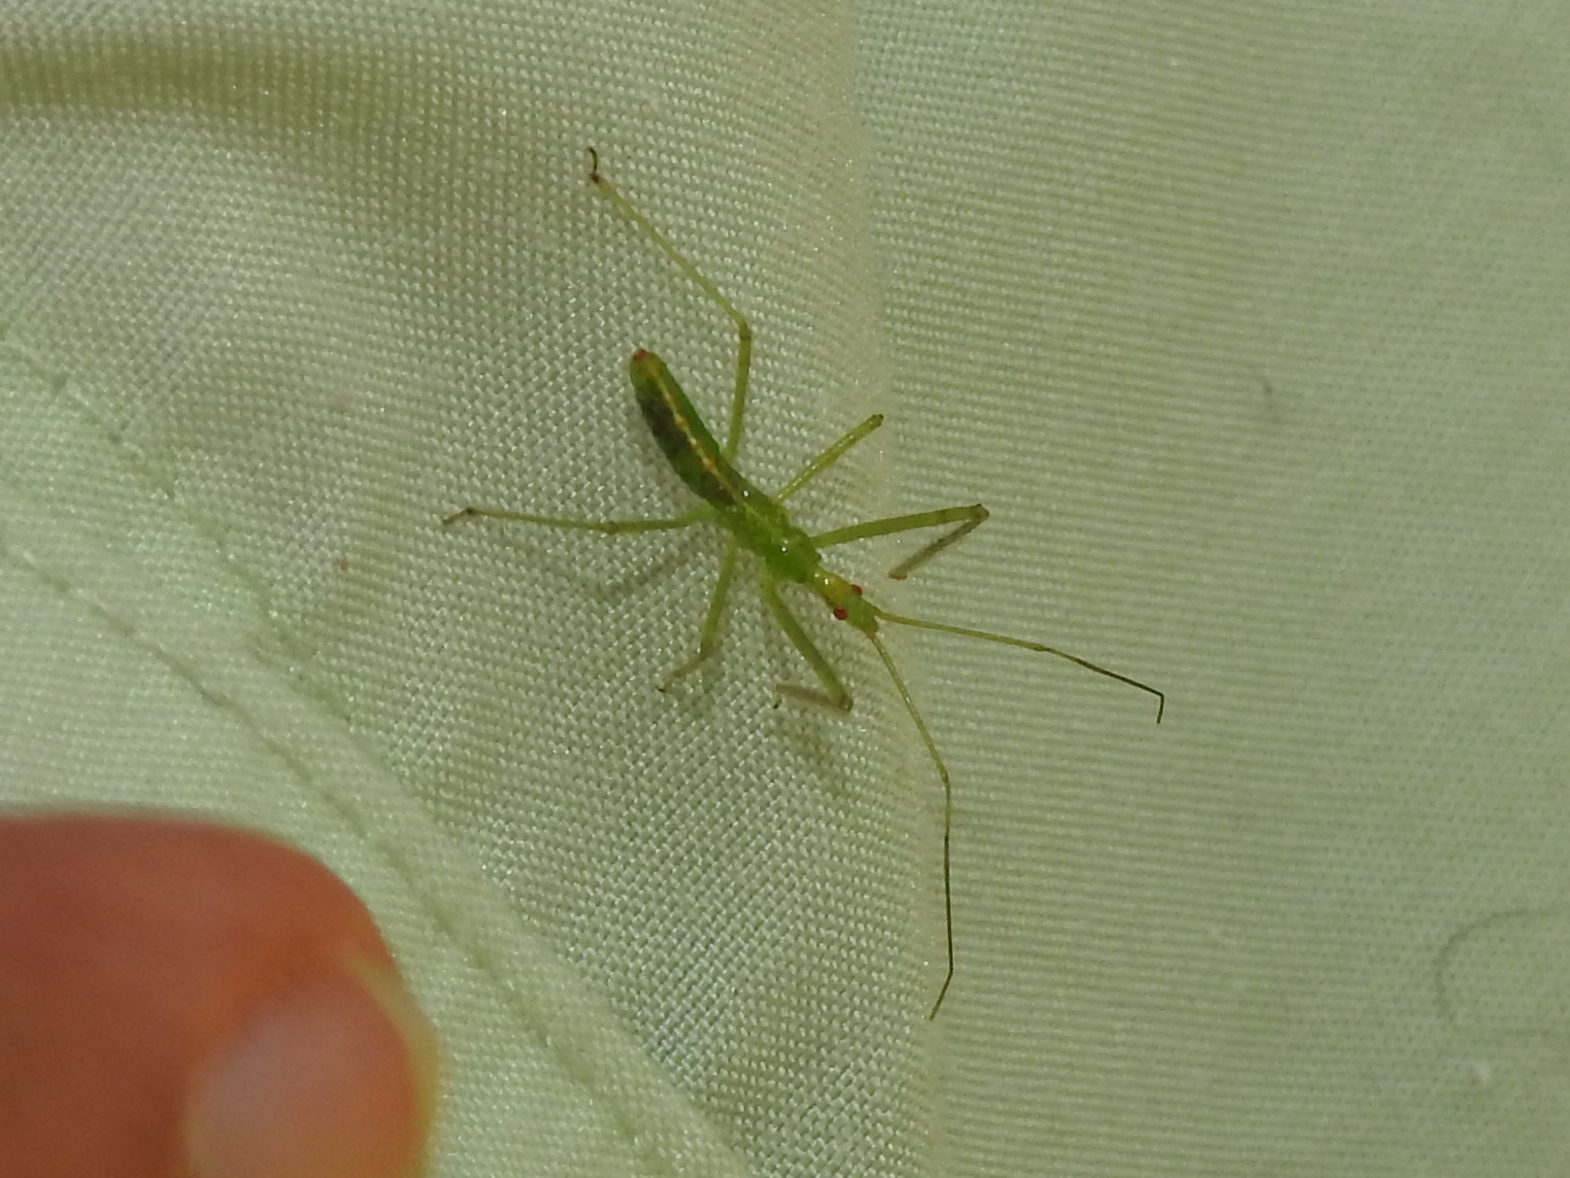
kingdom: Animalia
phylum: Arthropoda
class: Insecta
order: Hemiptera
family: Reduviidae
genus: Zelus
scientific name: Zelus luridus
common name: Pale green assassin bug
